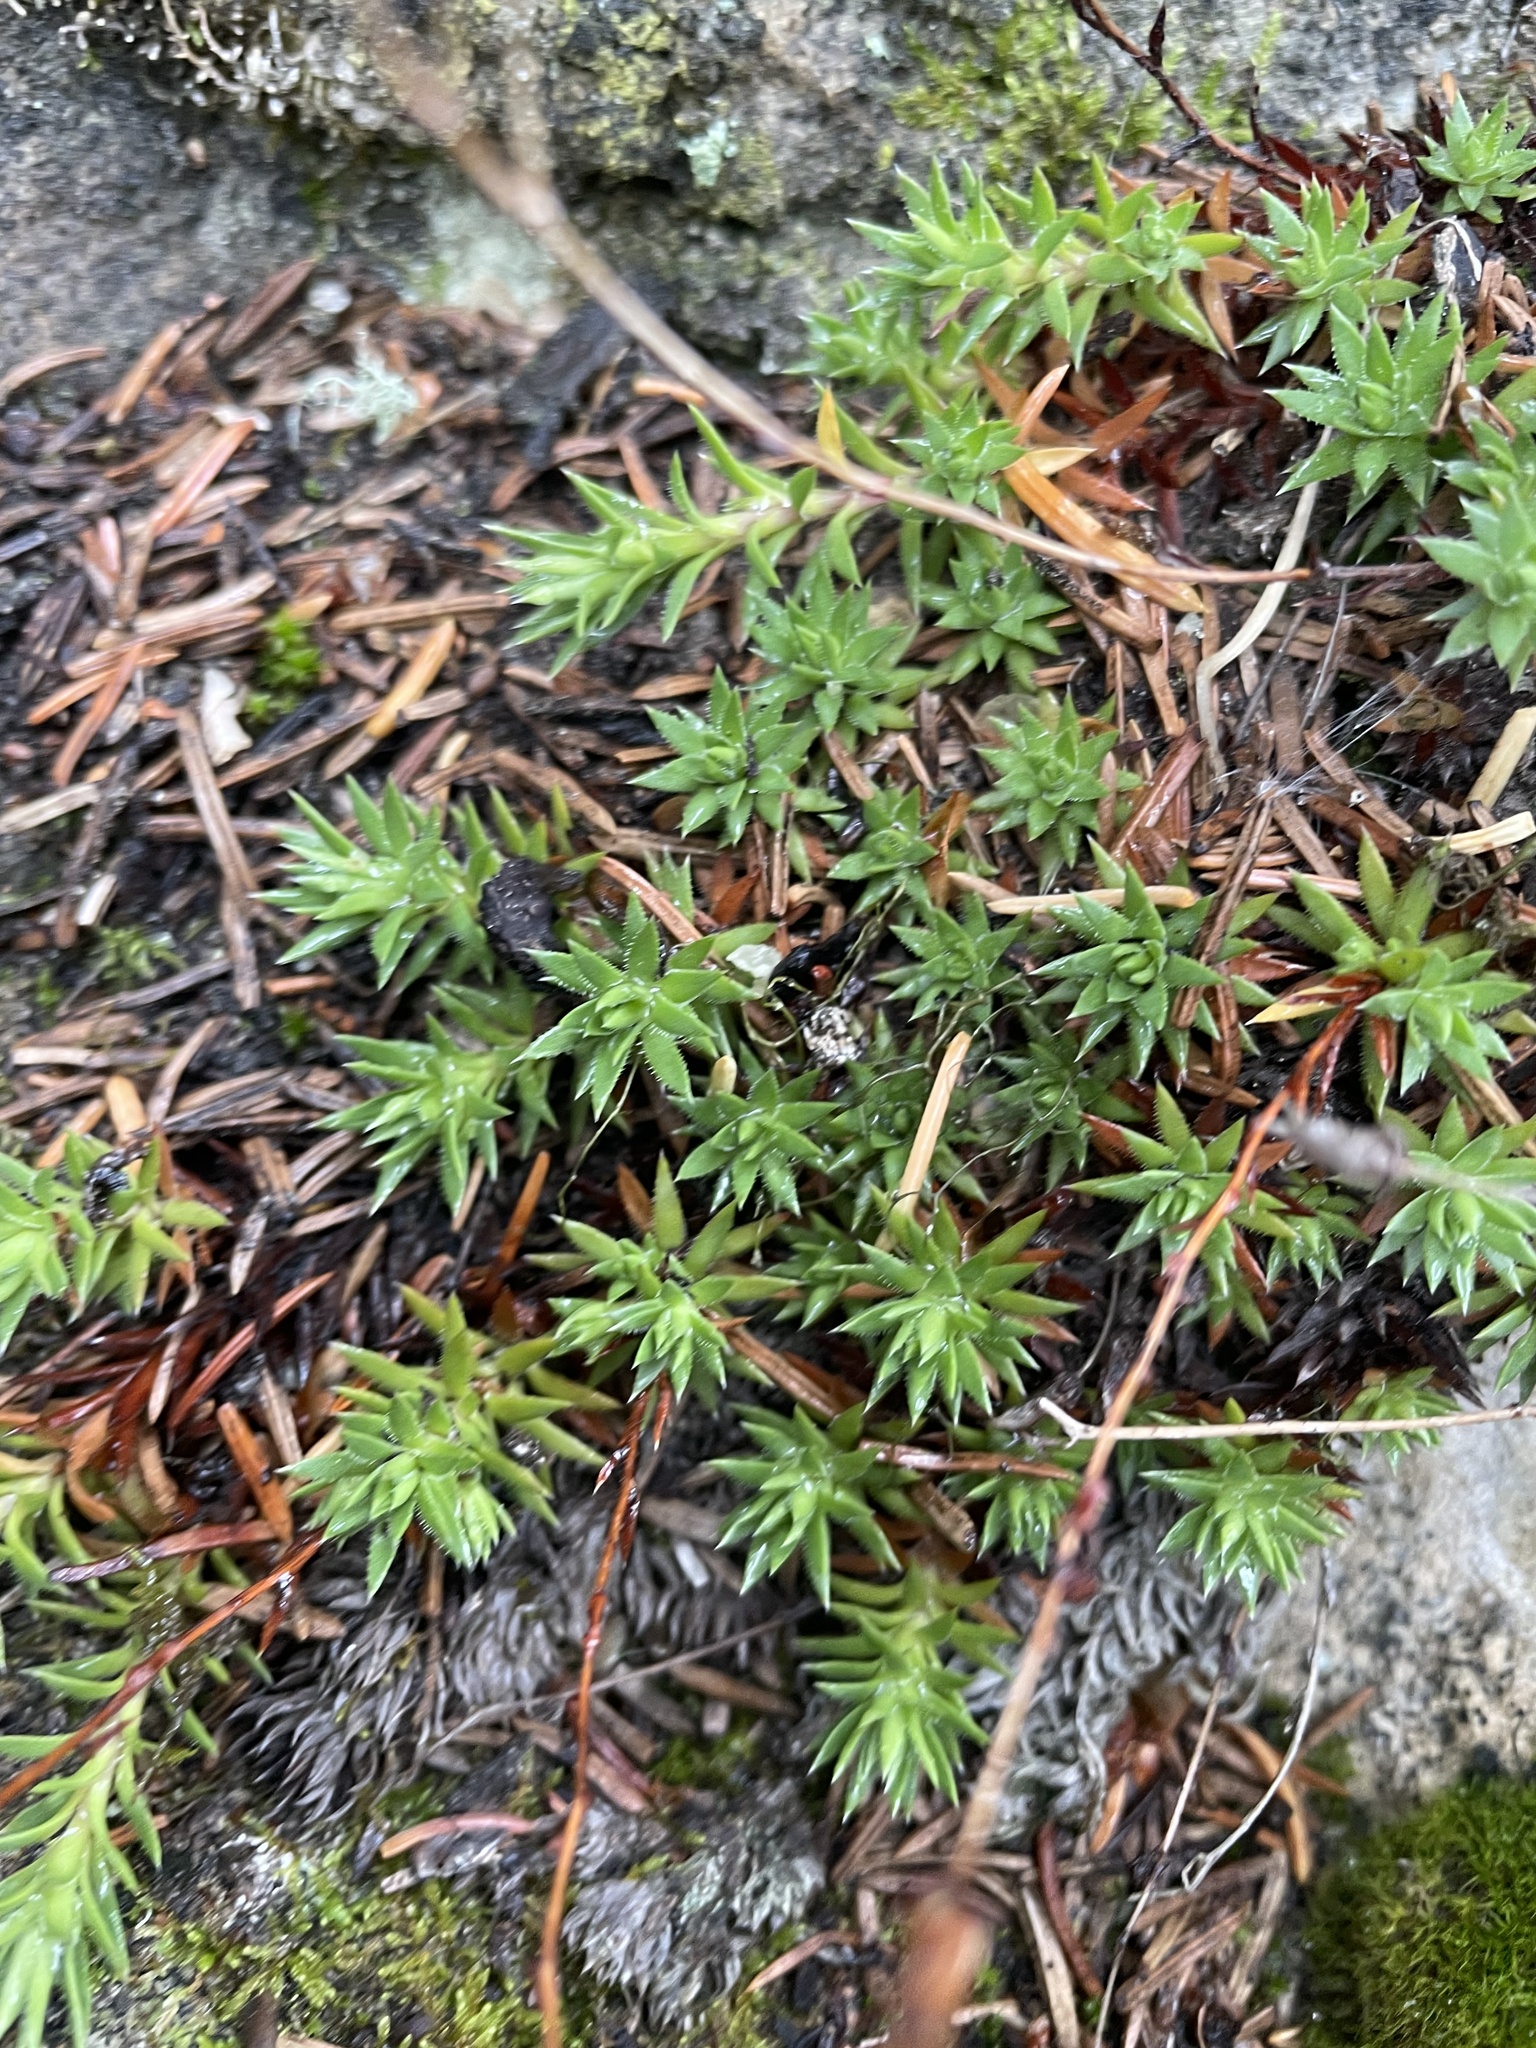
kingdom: Plantae
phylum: Tracheophyta
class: Magnoliopsida
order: Saxifragales
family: Saxifragaceae
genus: Saxifraga
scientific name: Saxifraga bronchialis
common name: Matted saxifrage
